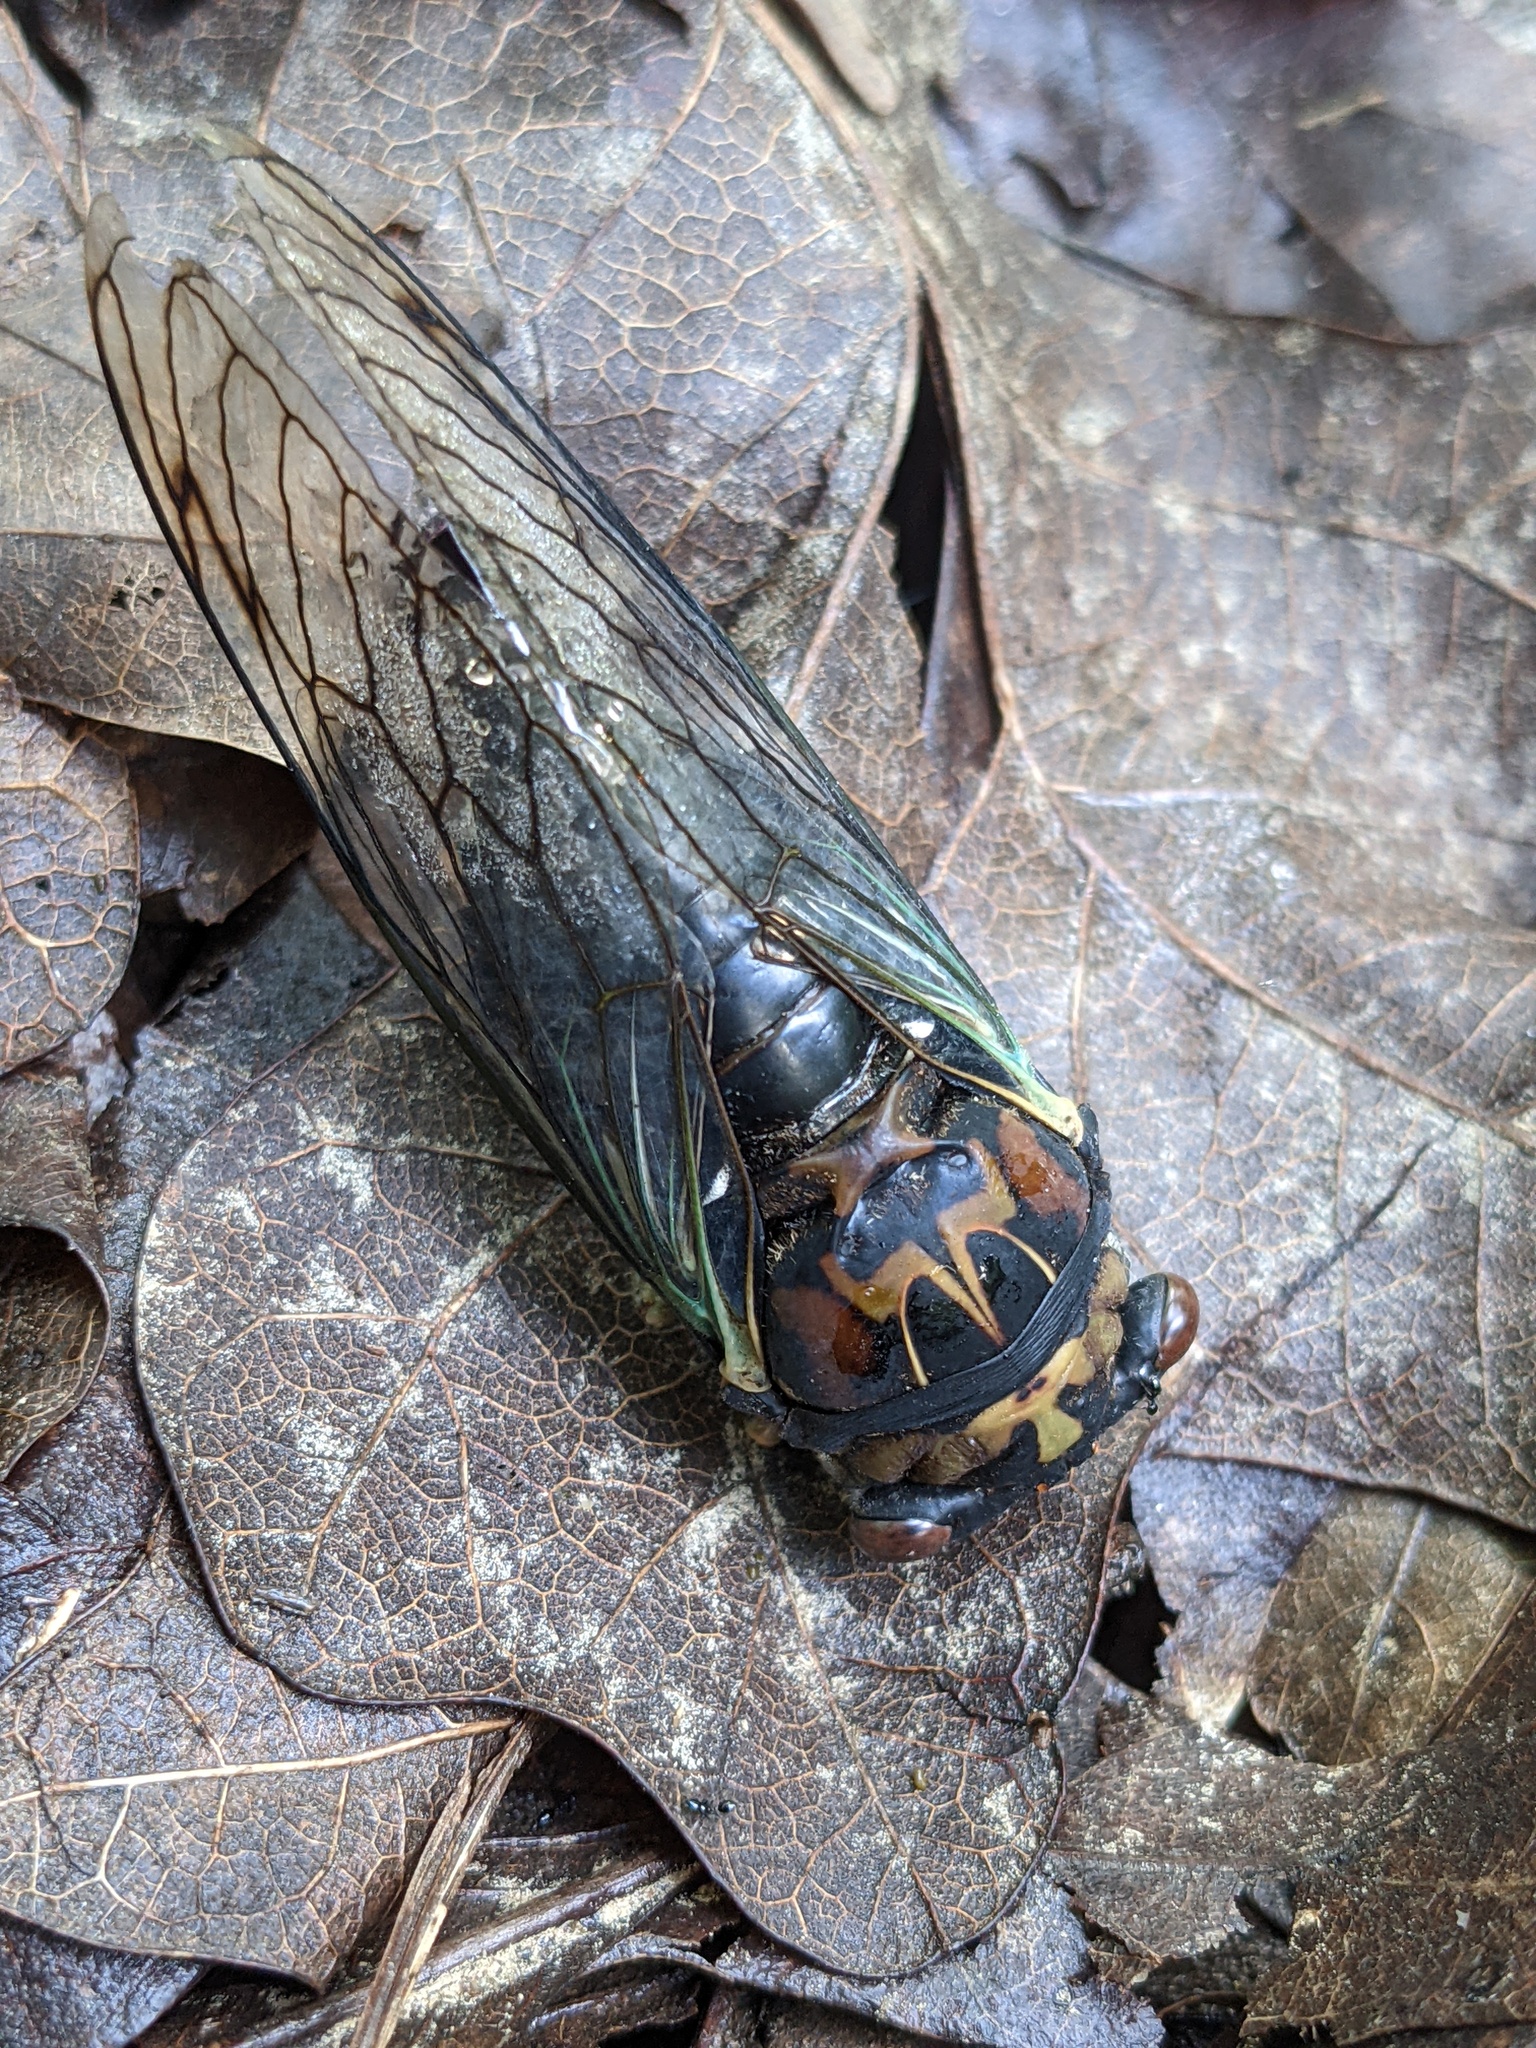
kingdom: Animalia
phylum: Arthropoda
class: Insecta
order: Hemiptera
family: Cicadidae
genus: Neotibicen
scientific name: Neotibicen lyricen
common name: Lyric cicada
